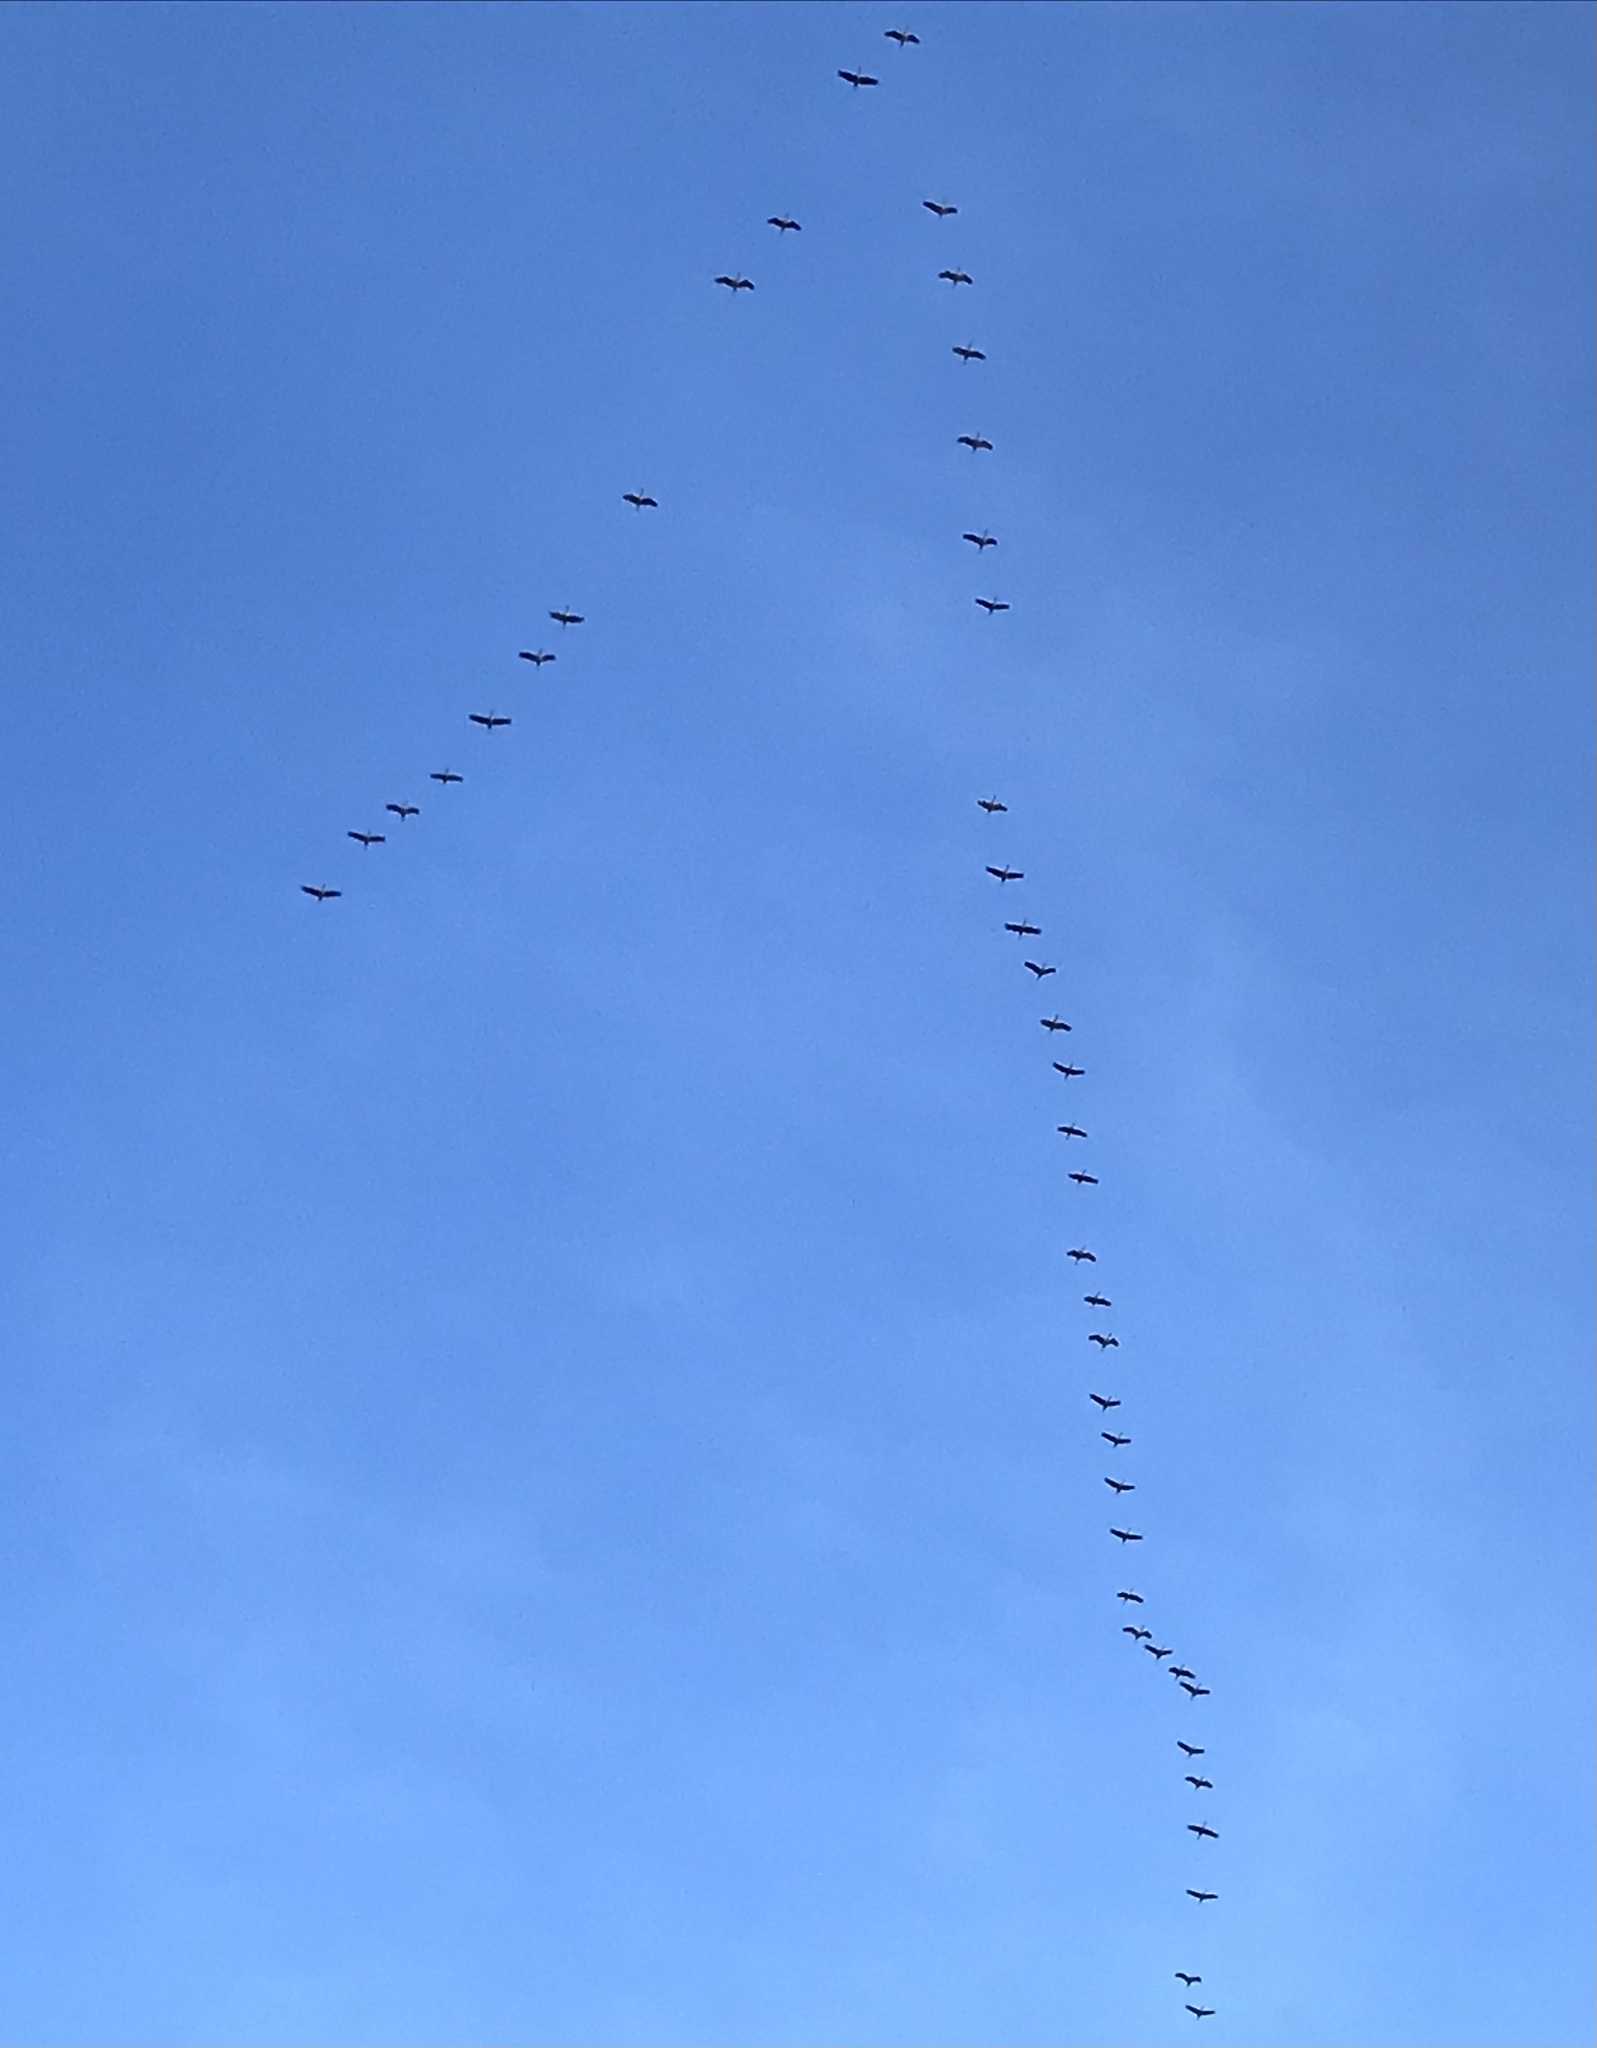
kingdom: Animalia
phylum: Chordata
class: Aves
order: Gruiformes
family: Gruidae
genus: Grus
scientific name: Grus grus
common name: Common crane
